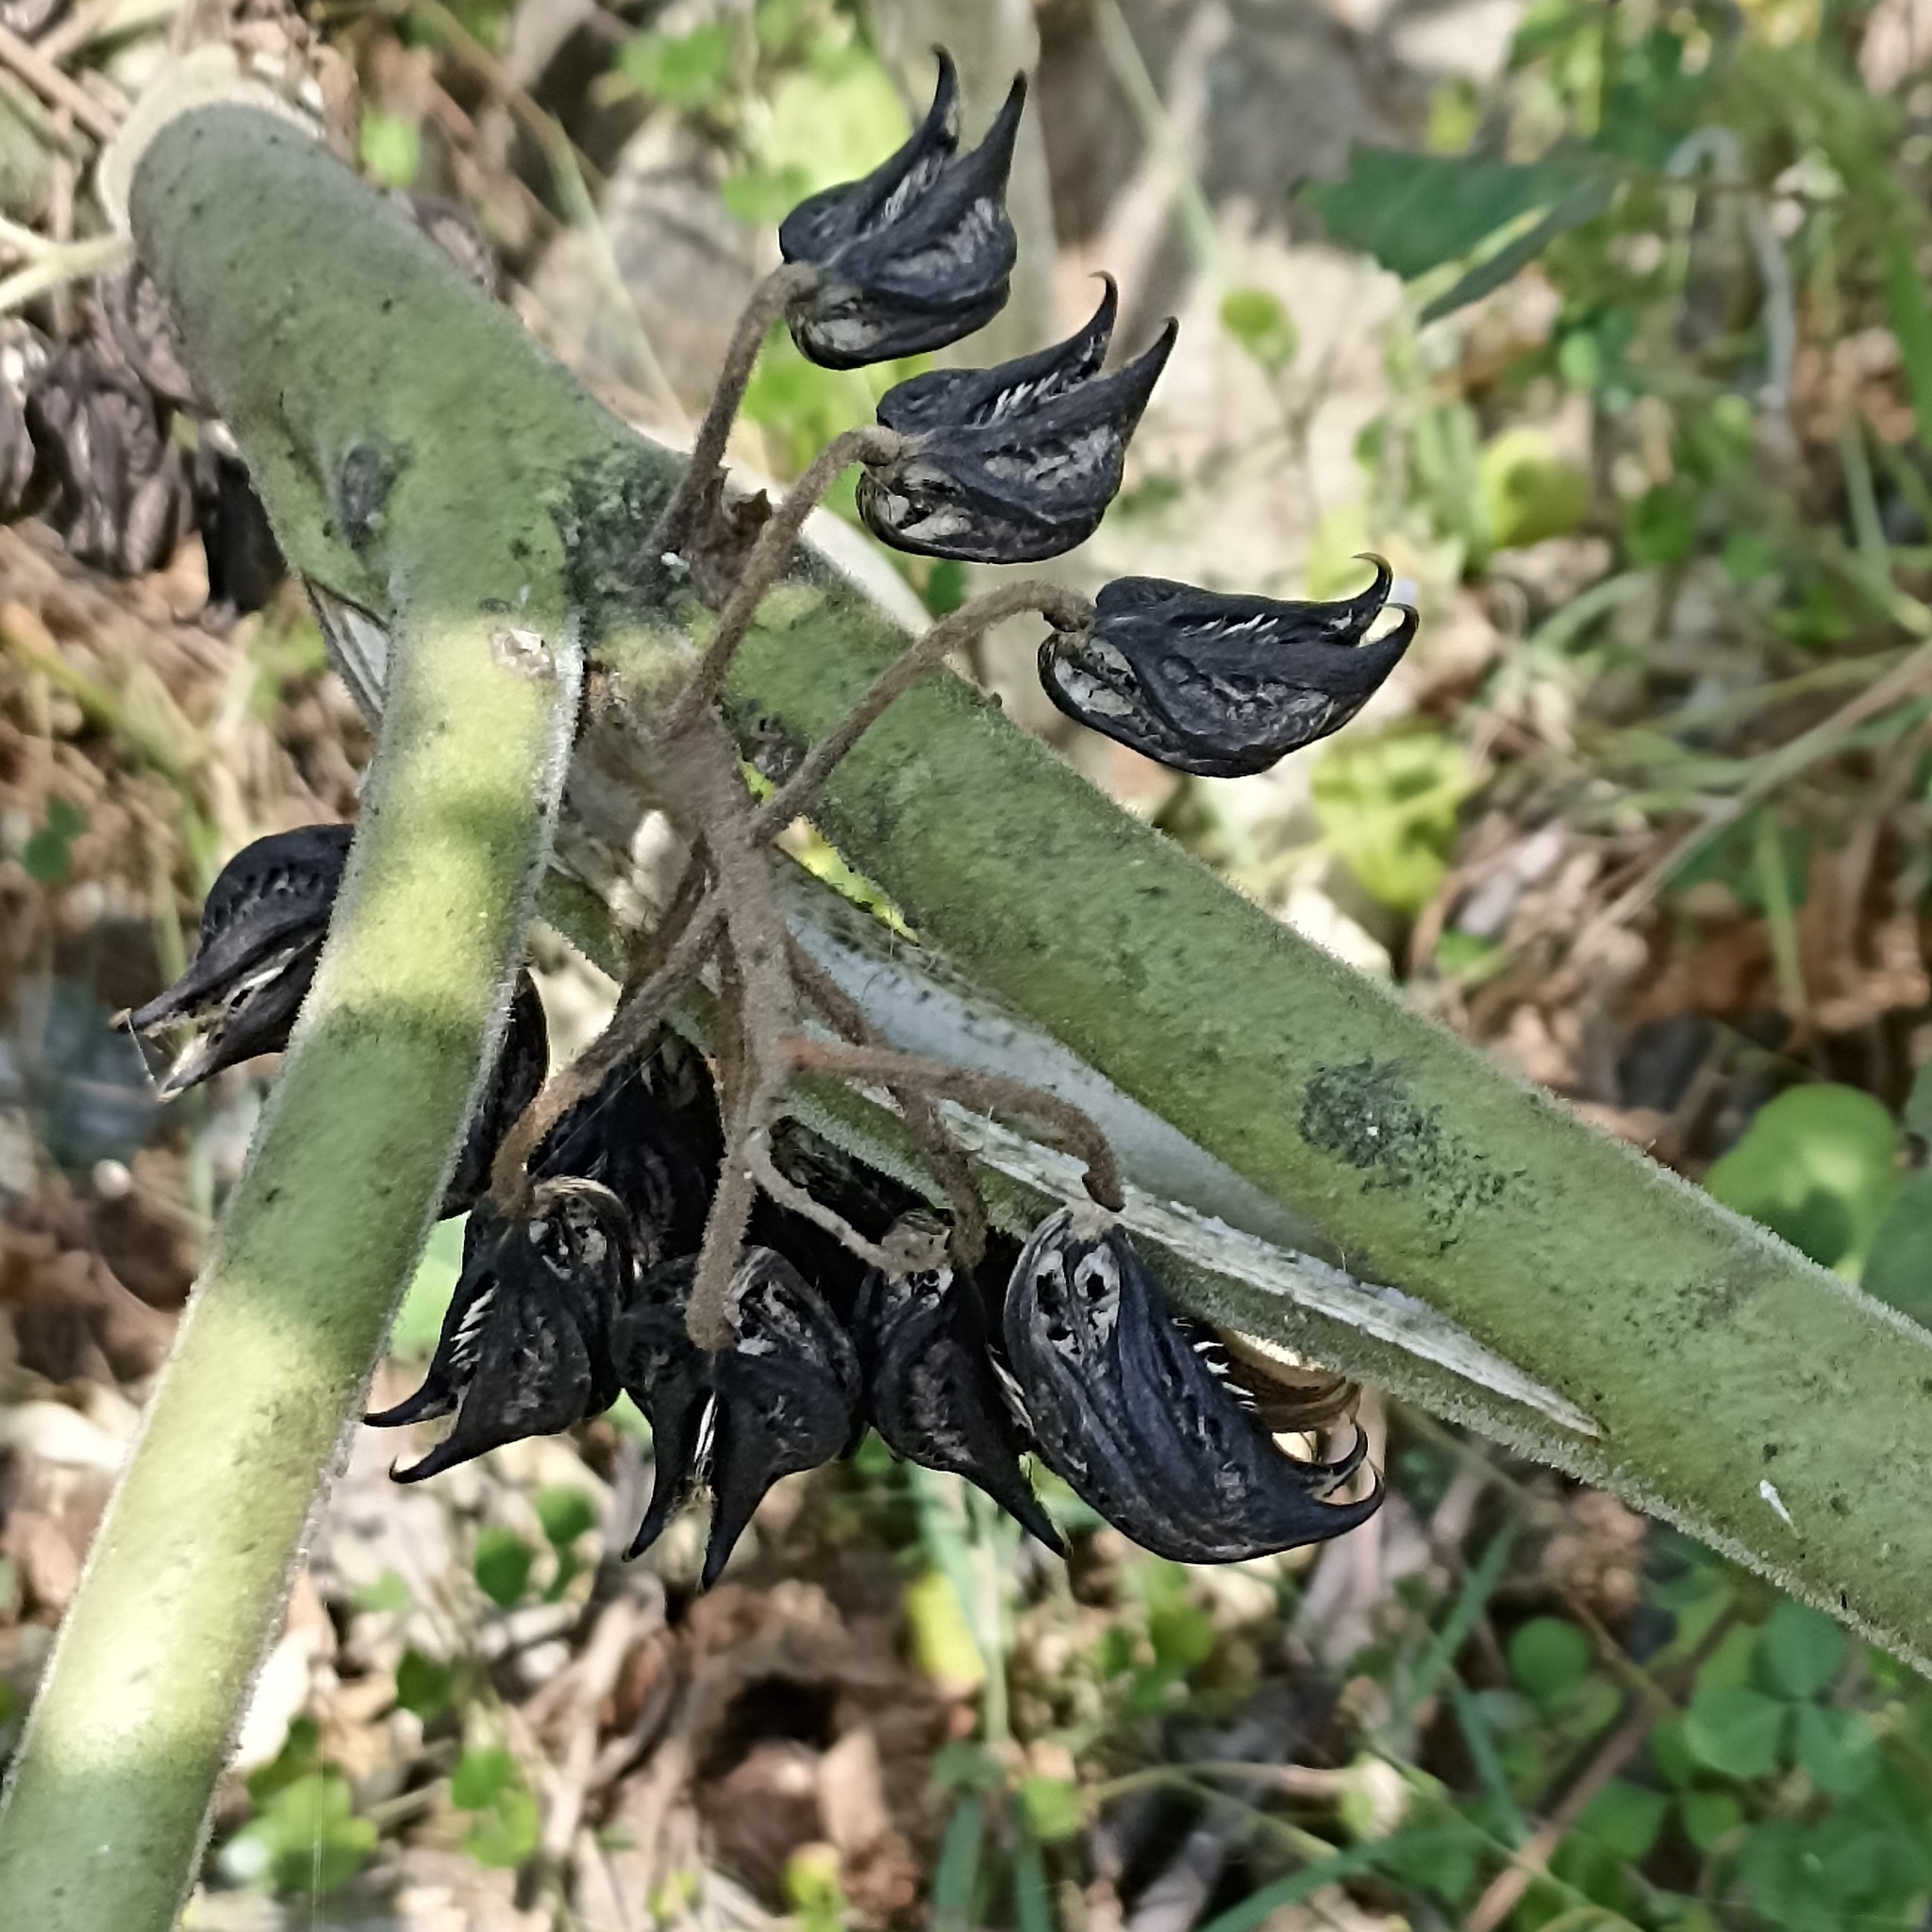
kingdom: Plantae
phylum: Tracheophyta
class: Magnoliopsida
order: Lamiales
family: Martyniaceae
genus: Martynia
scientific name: Martynia annua
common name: Tiger's-claw
